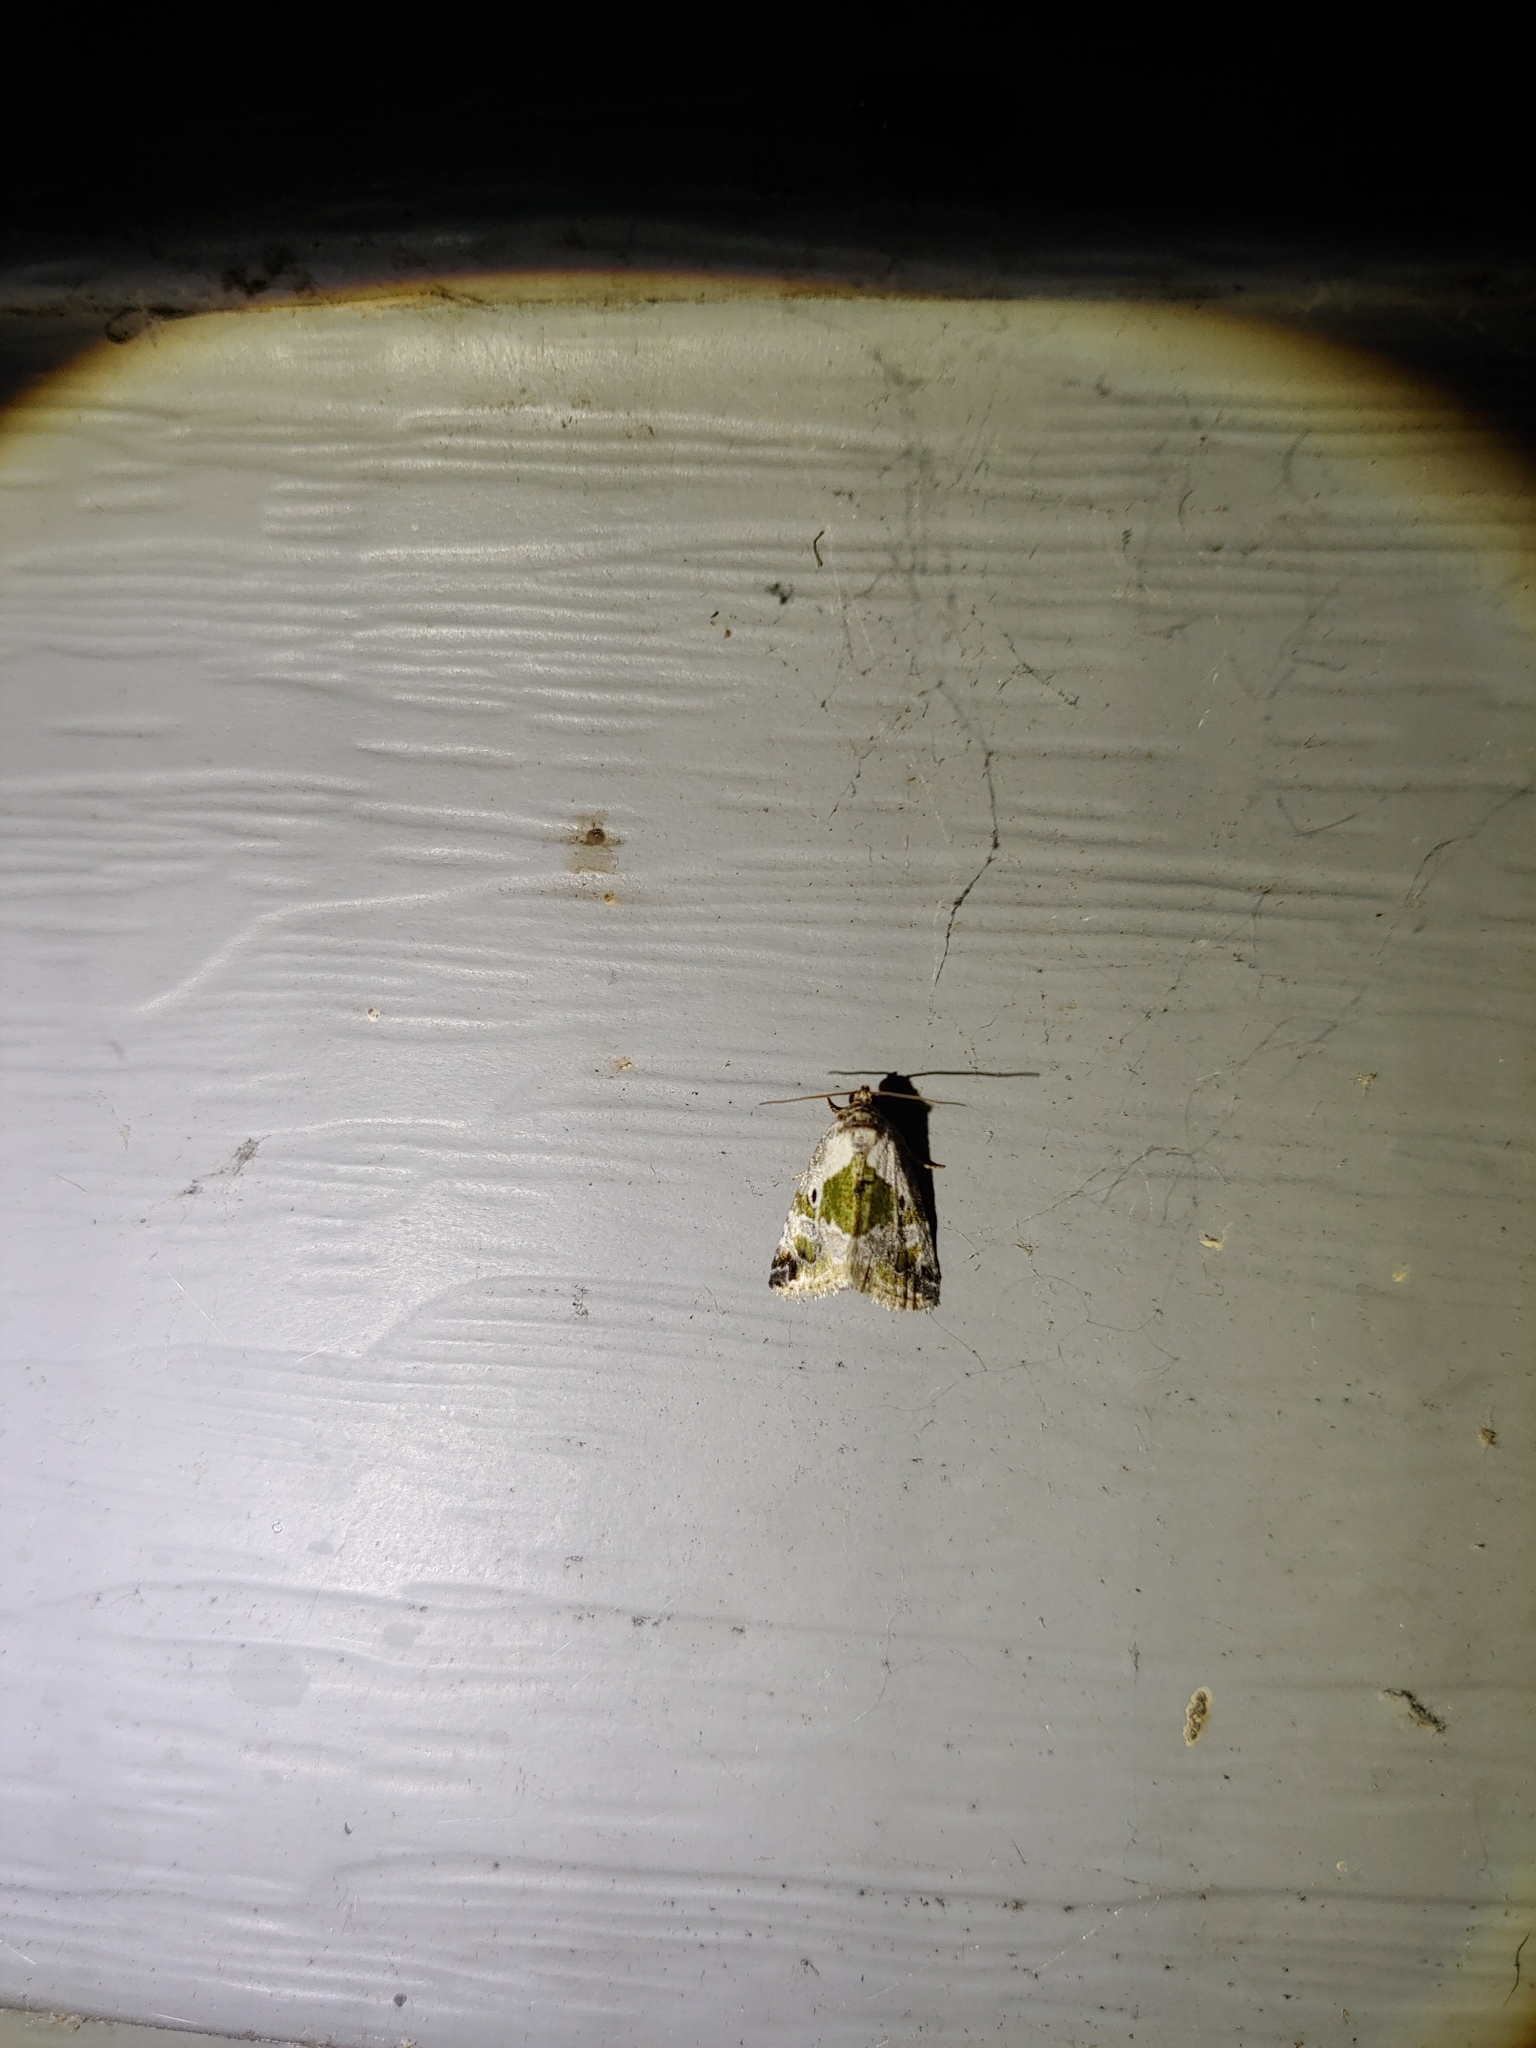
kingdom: Animalia
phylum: Arthropoda
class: Insecta
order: Lepidoptera
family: Noctuidae
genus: Maliattha
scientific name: Maliattha synochitis
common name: Black-dotted glyph
